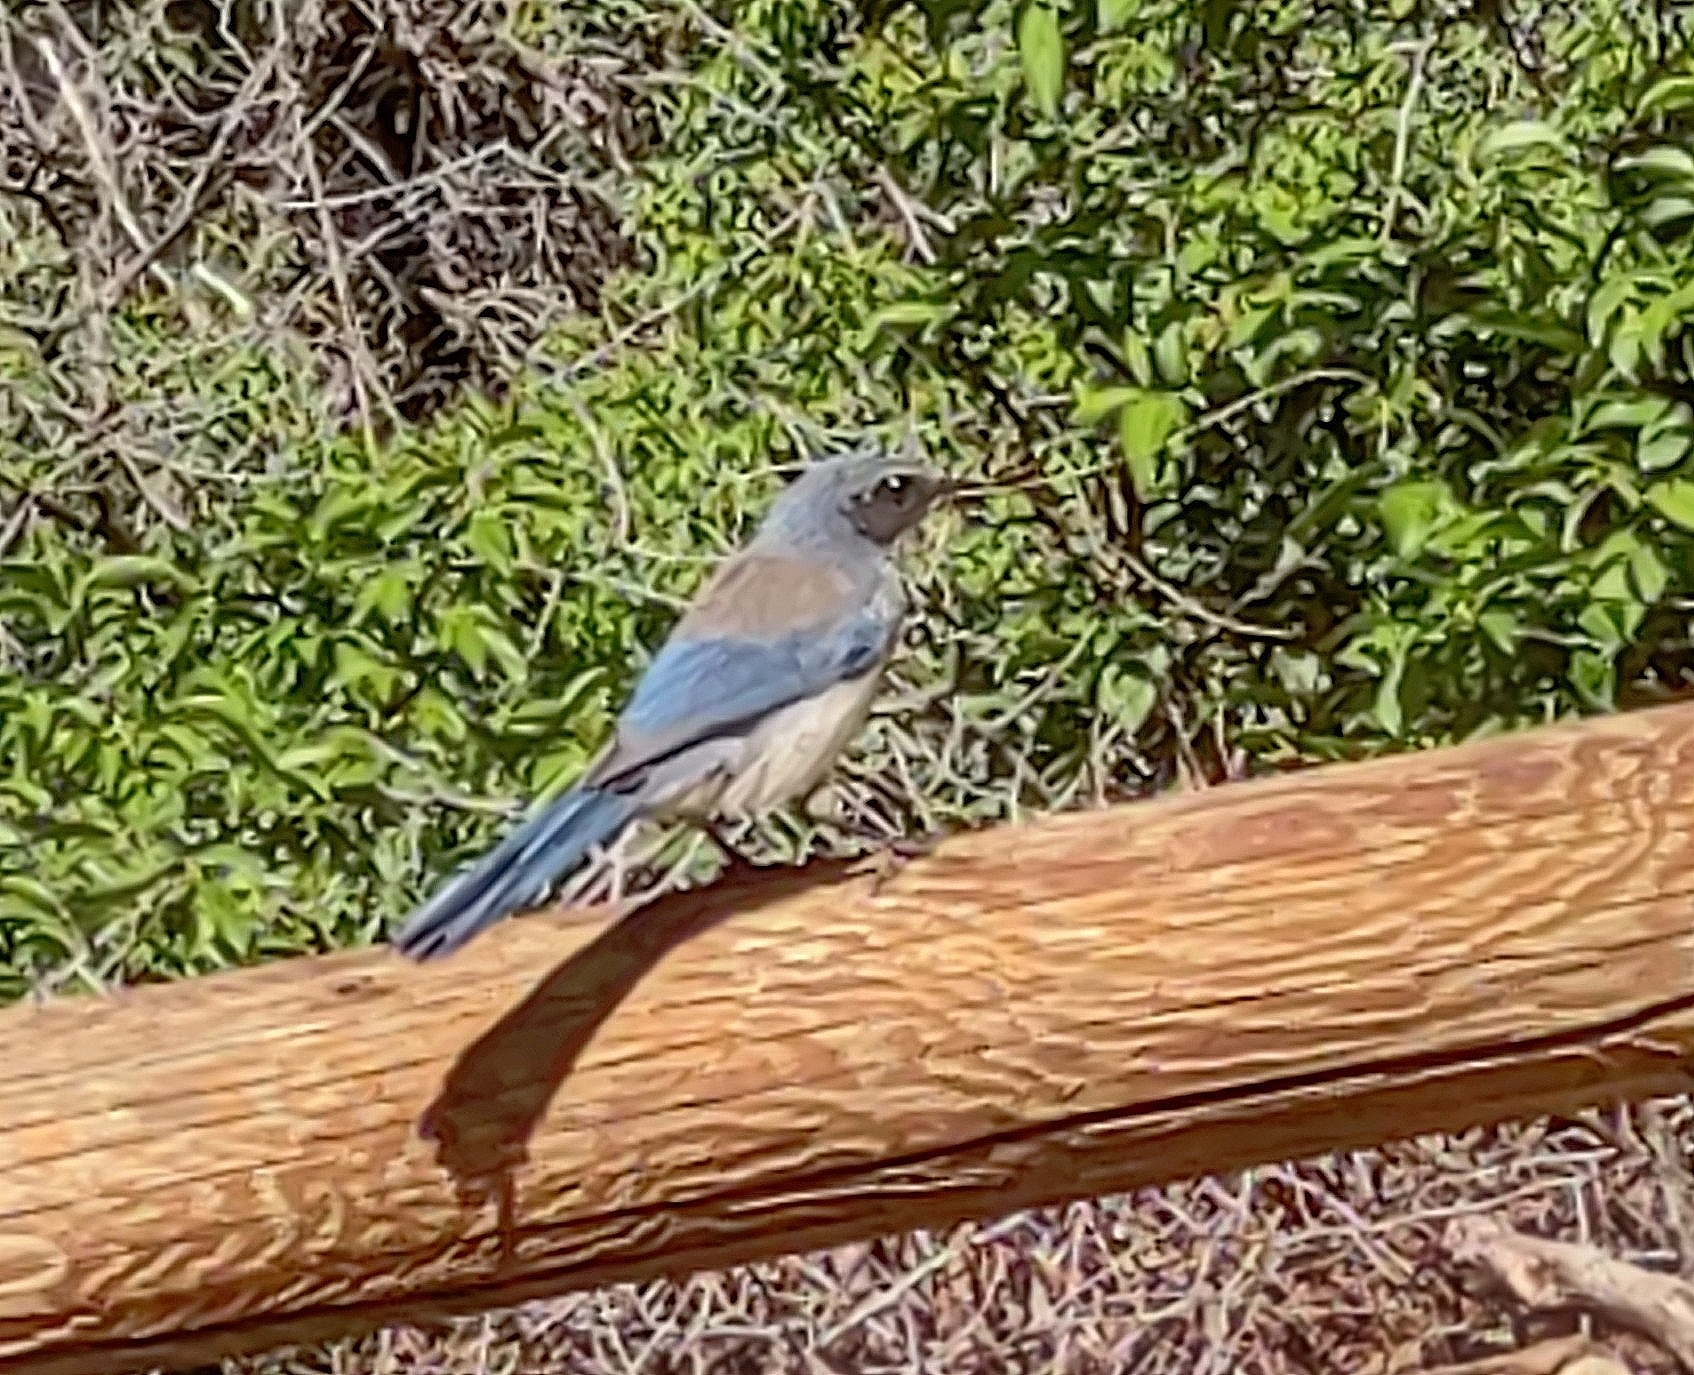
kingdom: Animalia
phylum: Chordata
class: Aves
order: Passeriformes
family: Corvidae
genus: Aphelocoma
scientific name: Aphelocoma woodhouseii
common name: Woodhouse's scrub-jay
